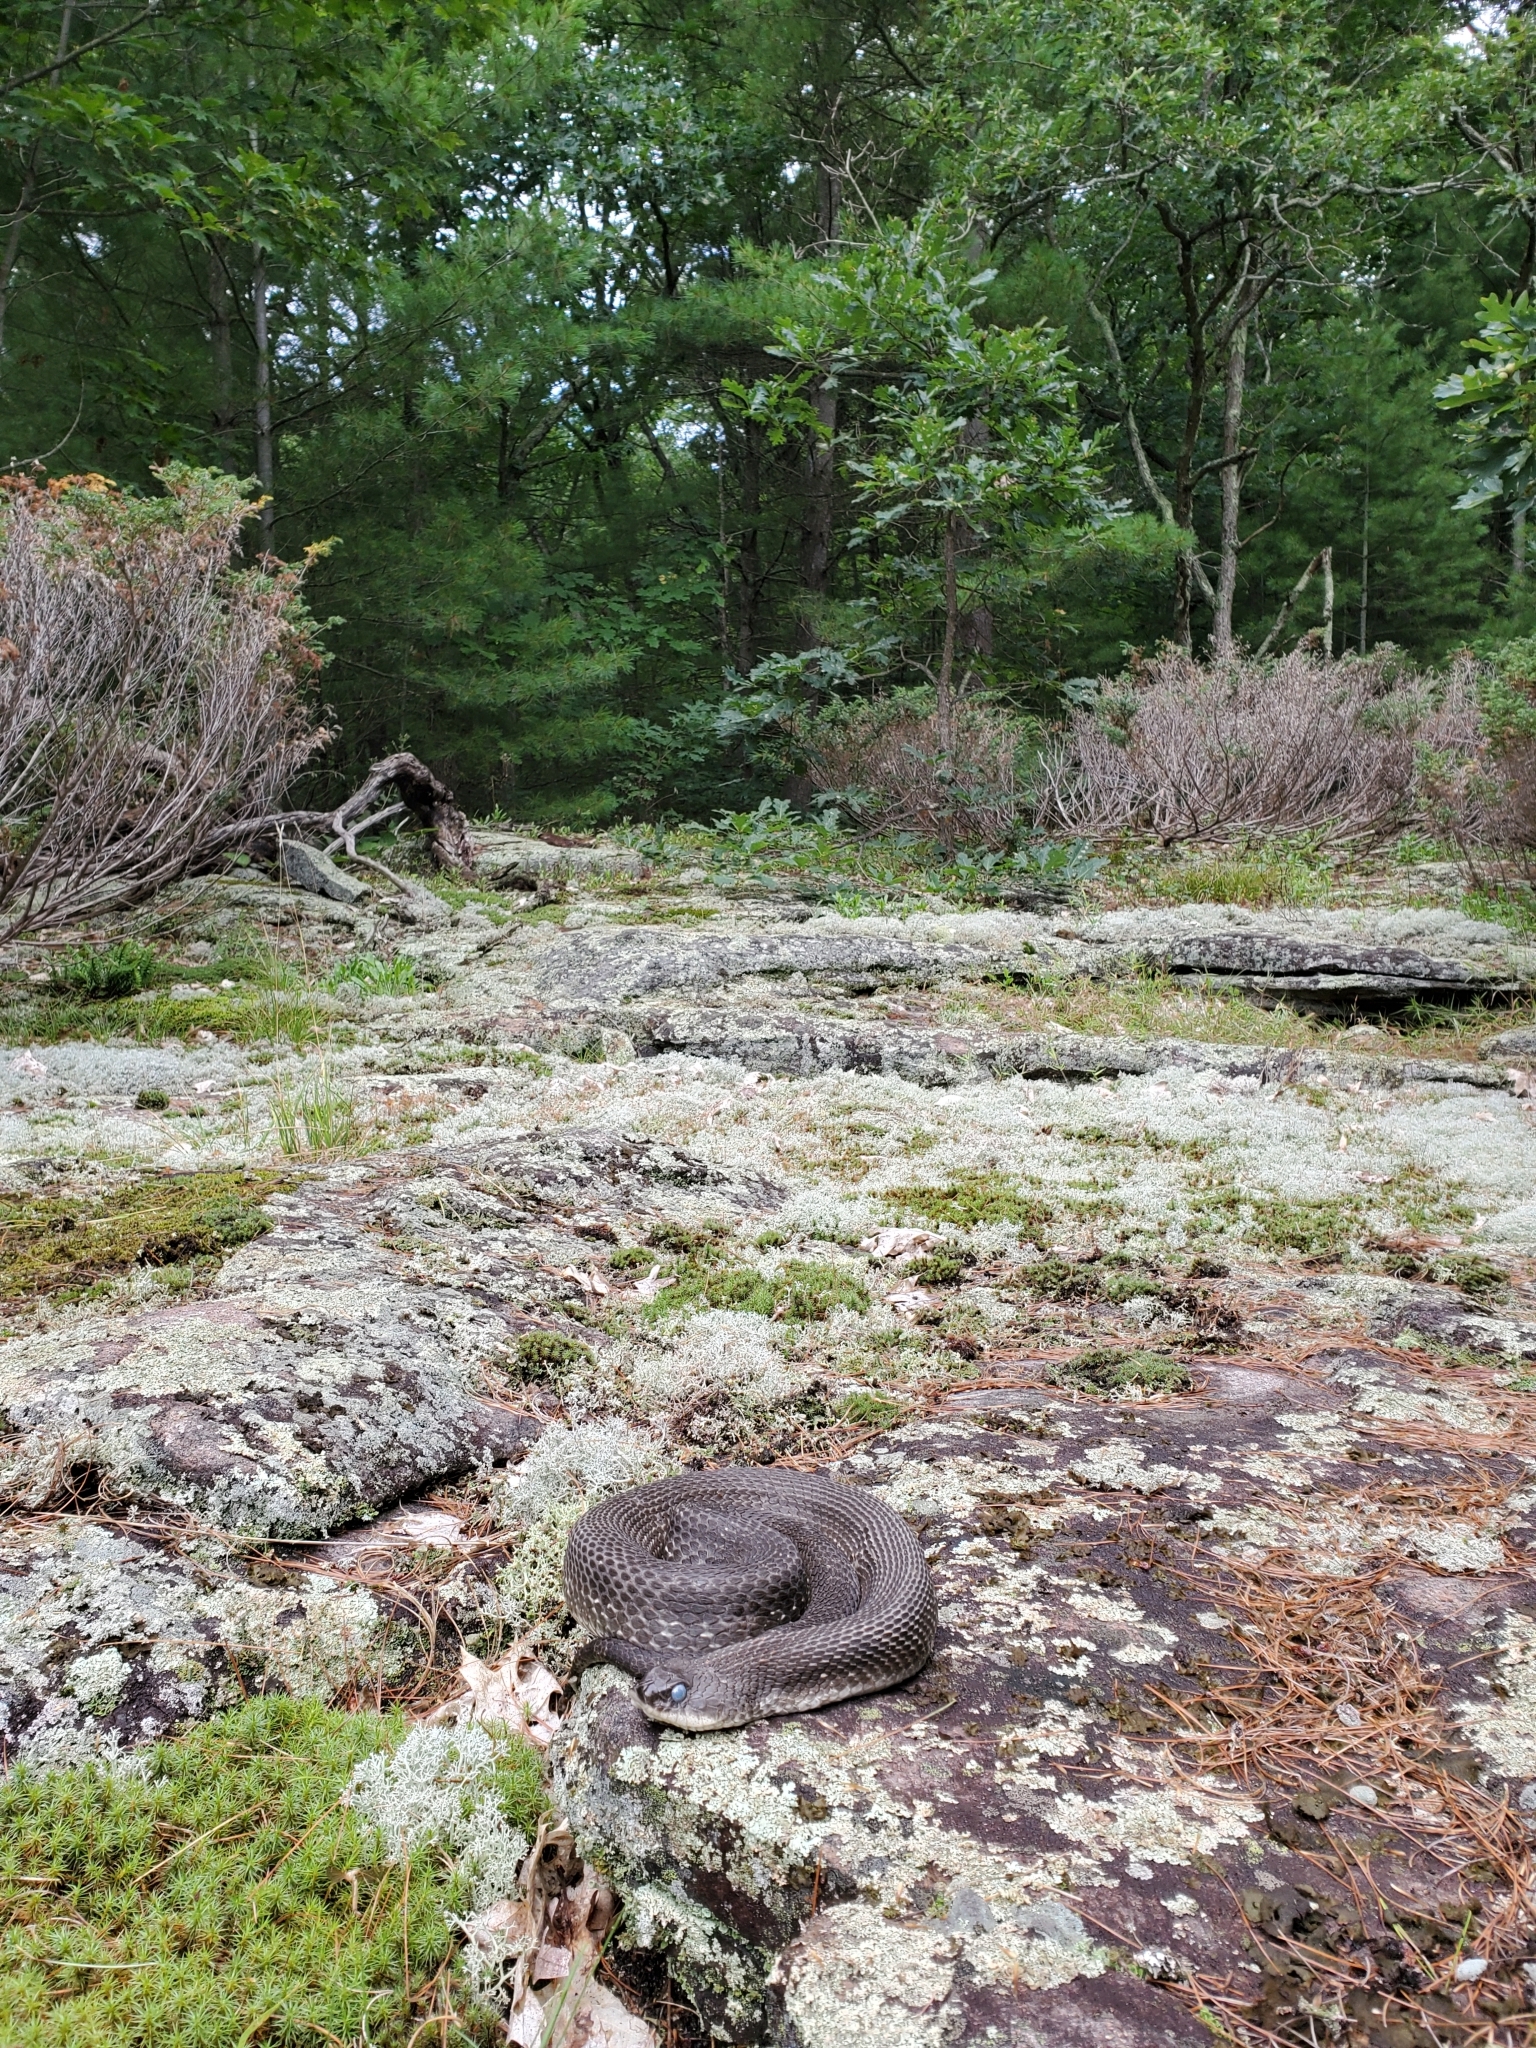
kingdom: Animalia
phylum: Chordata
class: Squamata
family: Colubridae
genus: Heterodon
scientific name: Heterodon platirhinos
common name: Eastern hognose snake
